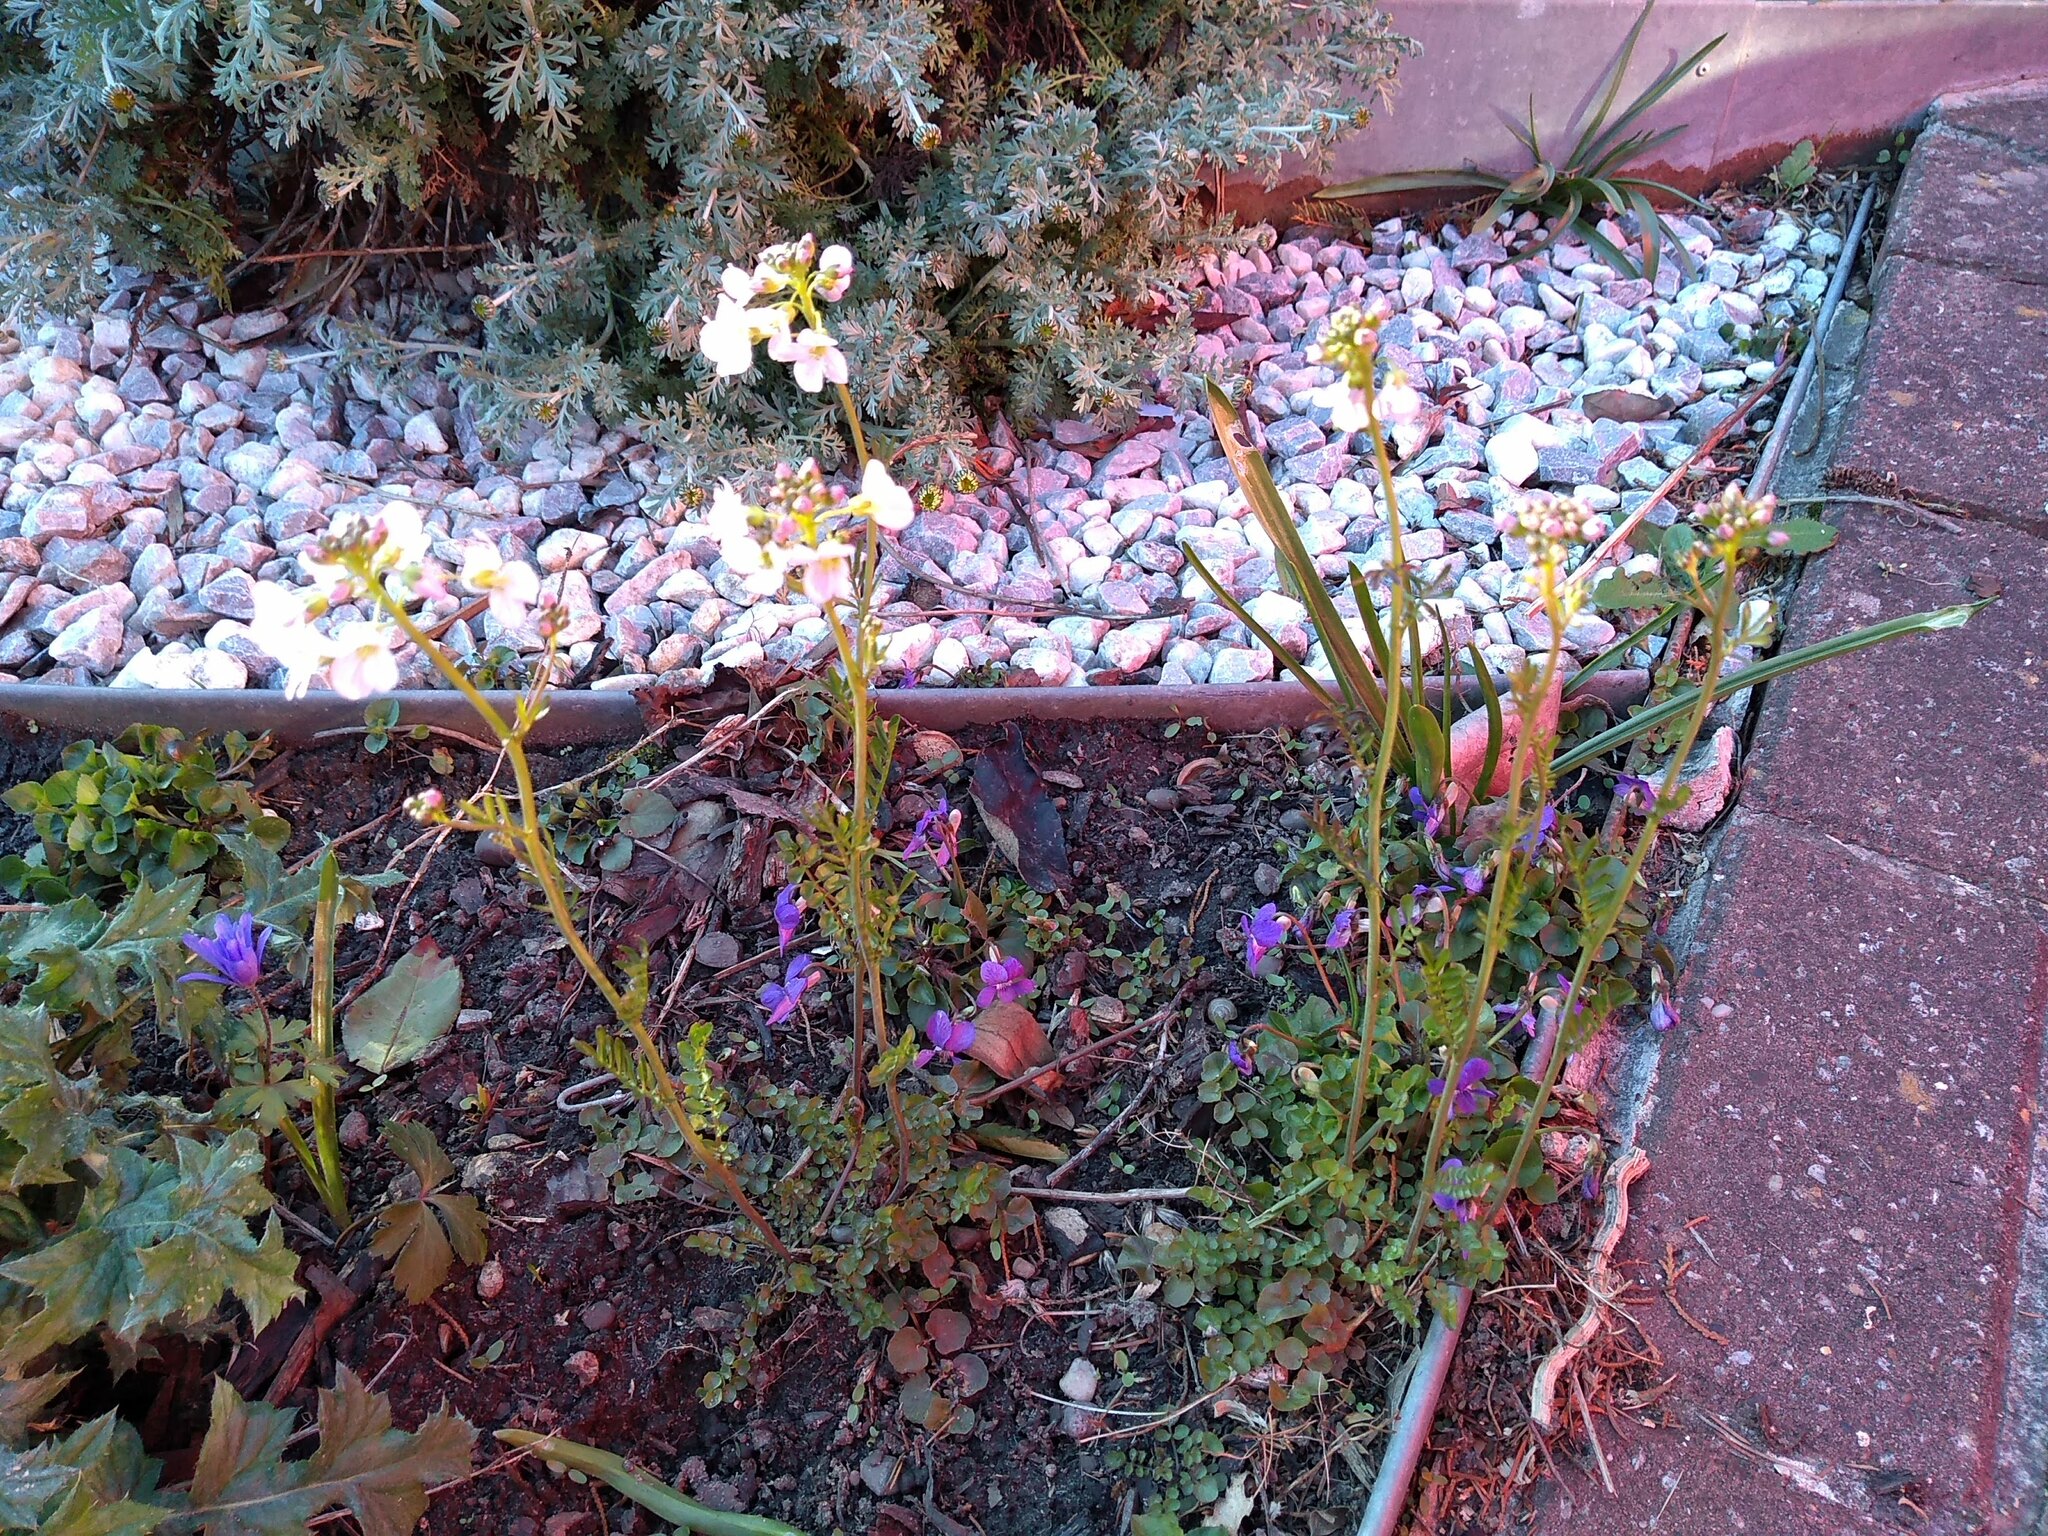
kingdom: Plantae
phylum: Tracheophyta
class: Magnoliopsida
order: Brassicales
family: Brassicaceae
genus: Cardamine
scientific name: Cardamine pratensis
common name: Cuckoo flower
